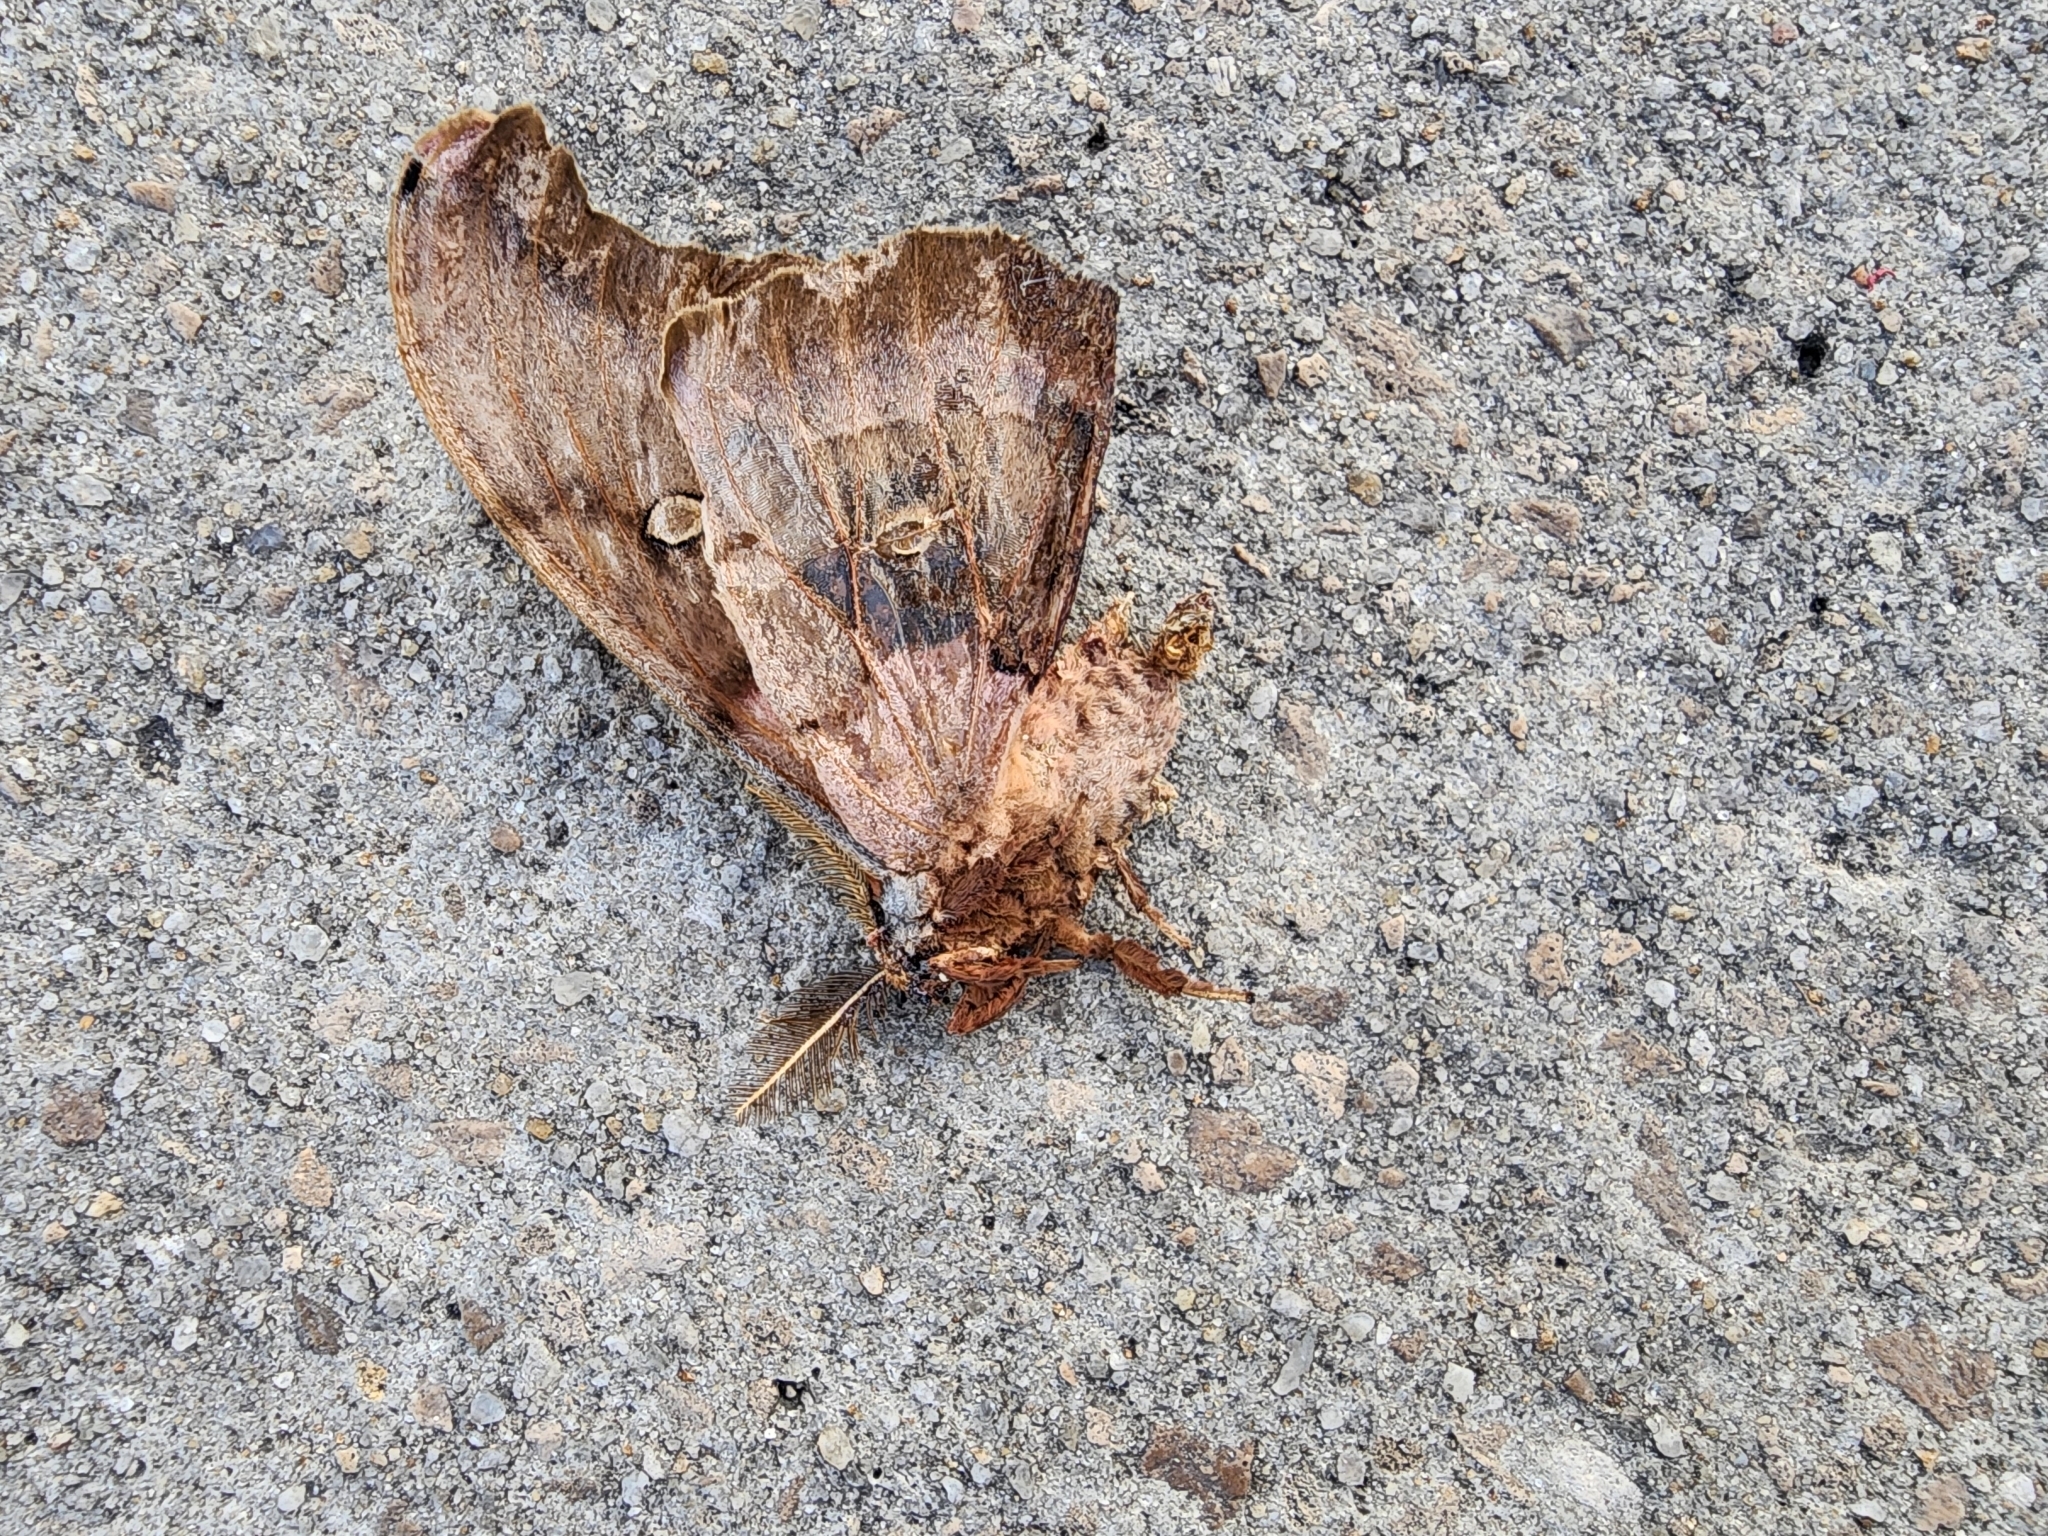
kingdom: Animalia
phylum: Arthropoda
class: Insecta
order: Lepidoptera
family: Saturniidae
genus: Antheraea
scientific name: Antheraea polyphemus
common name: Polyphemus moth
